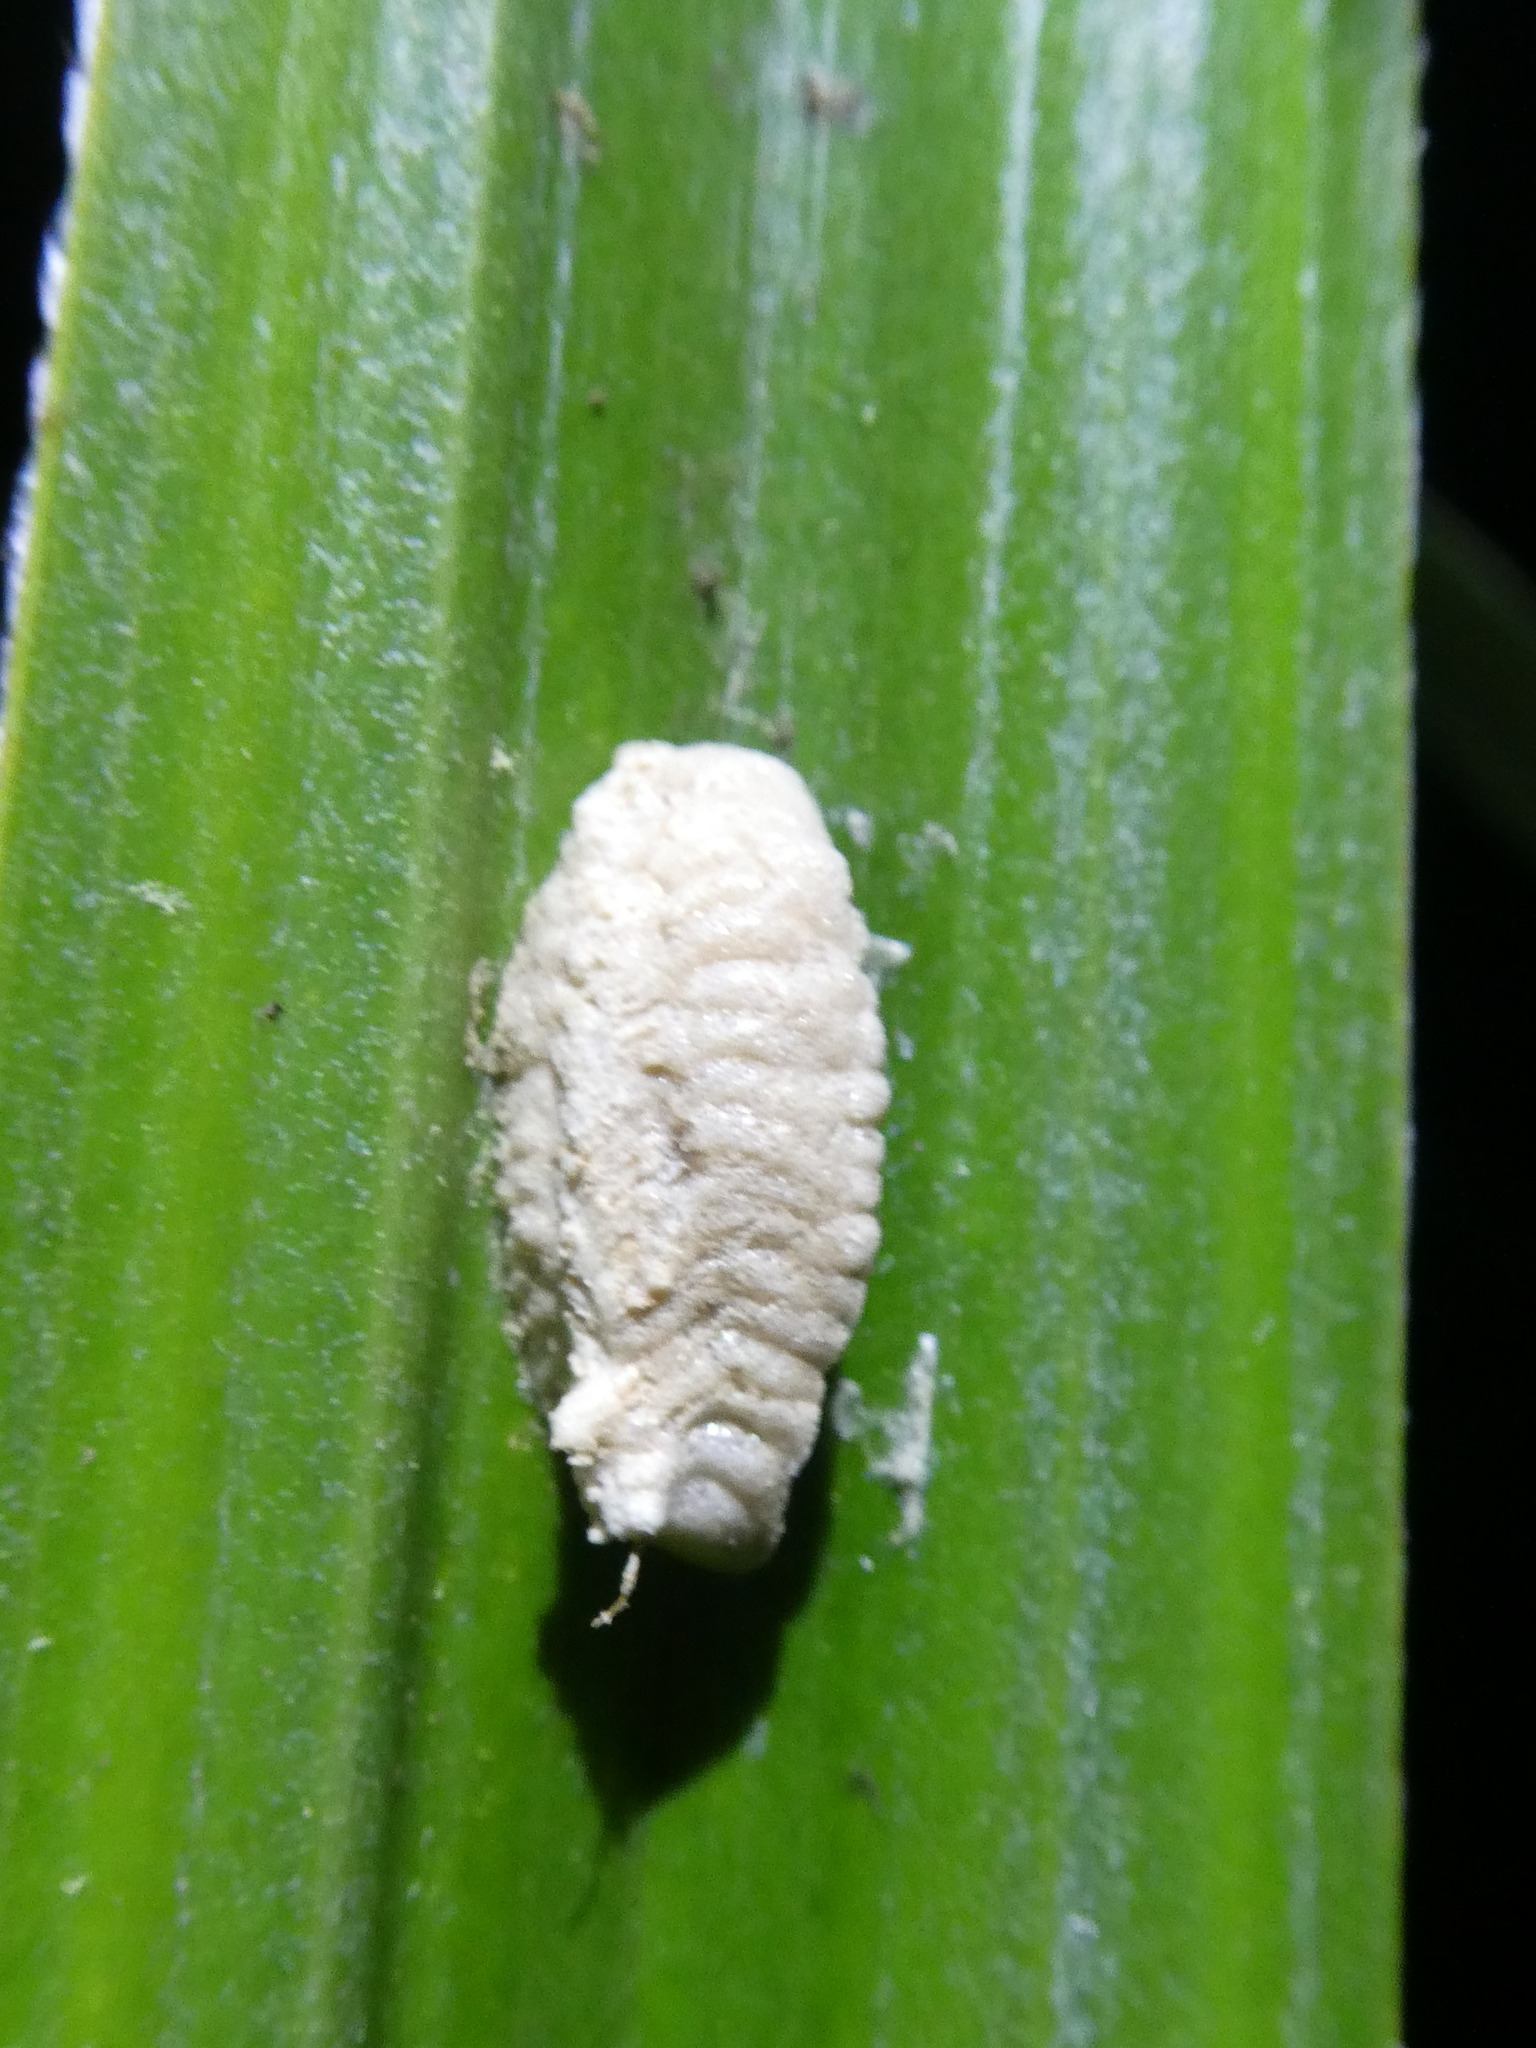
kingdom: Animalia
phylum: Arthropoda
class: Insecta
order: Mantodea
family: Miomantidae
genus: Miomantis
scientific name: Miomantis caffra
